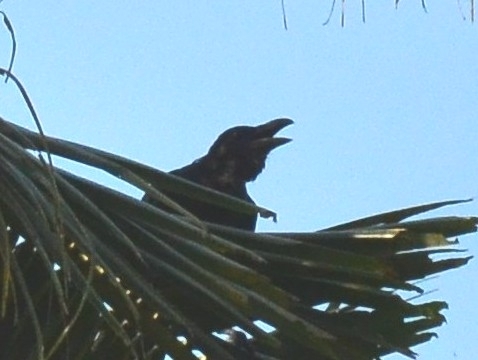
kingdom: Animalia
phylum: Chordata
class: Aves
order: Passeriformes
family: Corvidae
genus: Corvus
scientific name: Corvus macrorhynchos
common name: Large-billed crow
